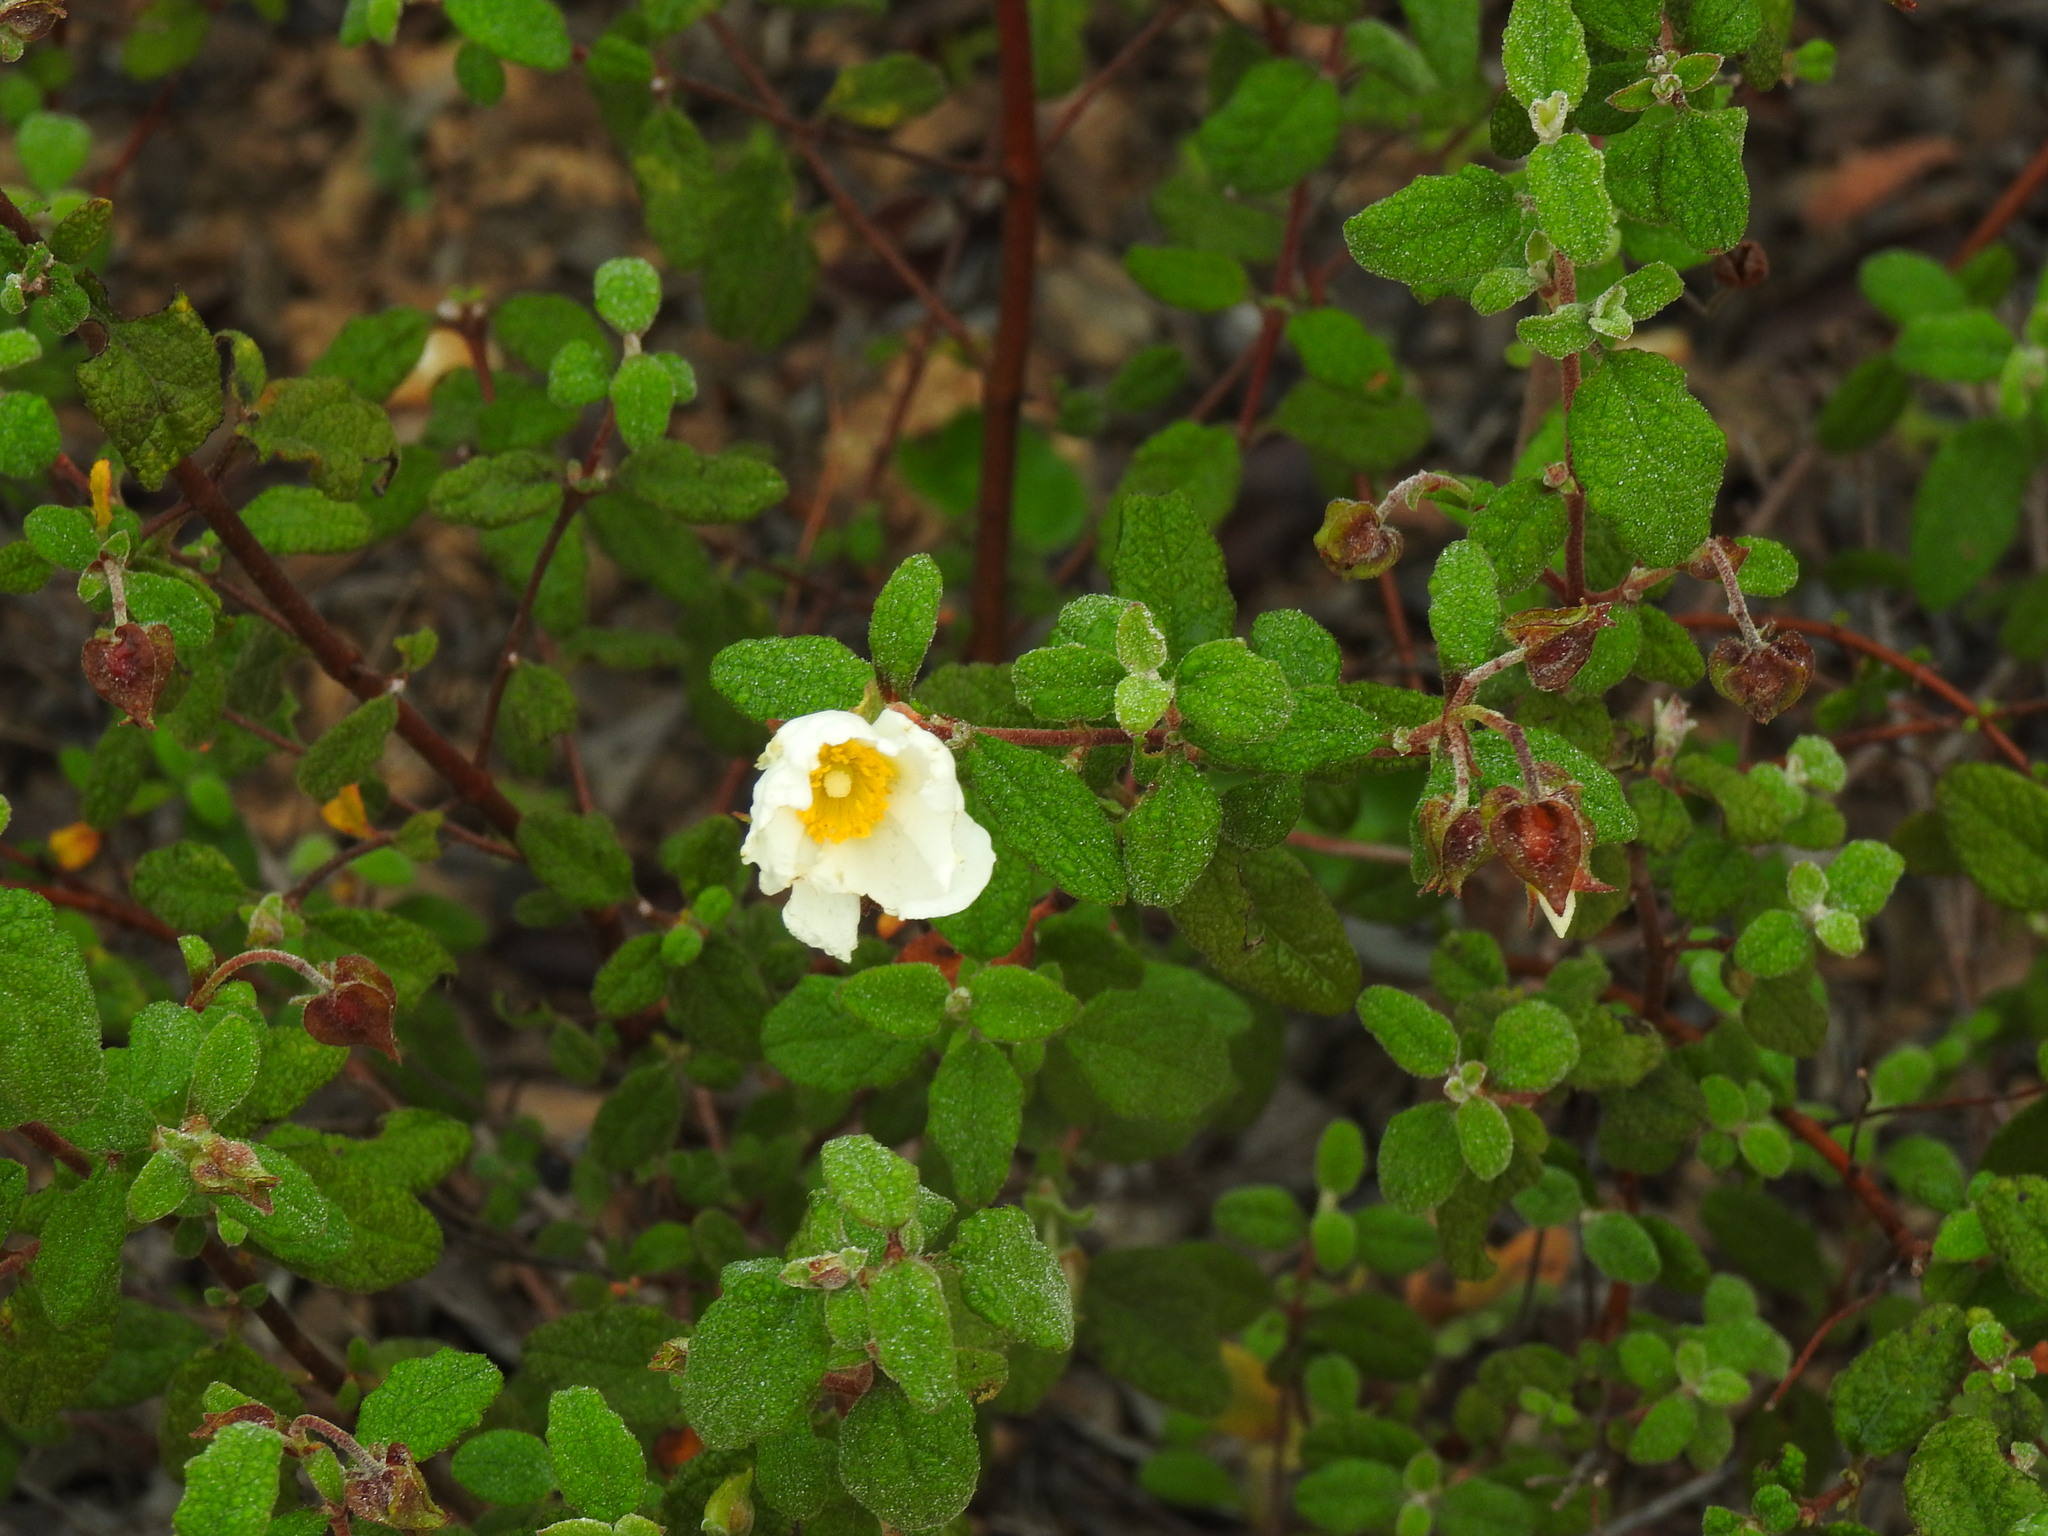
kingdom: Plantae
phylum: Tracheophyta
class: Magnoliopsida
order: Malvales
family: Cistaceae
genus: Cistus
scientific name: Cistus salviifolius
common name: Salvia cistus
